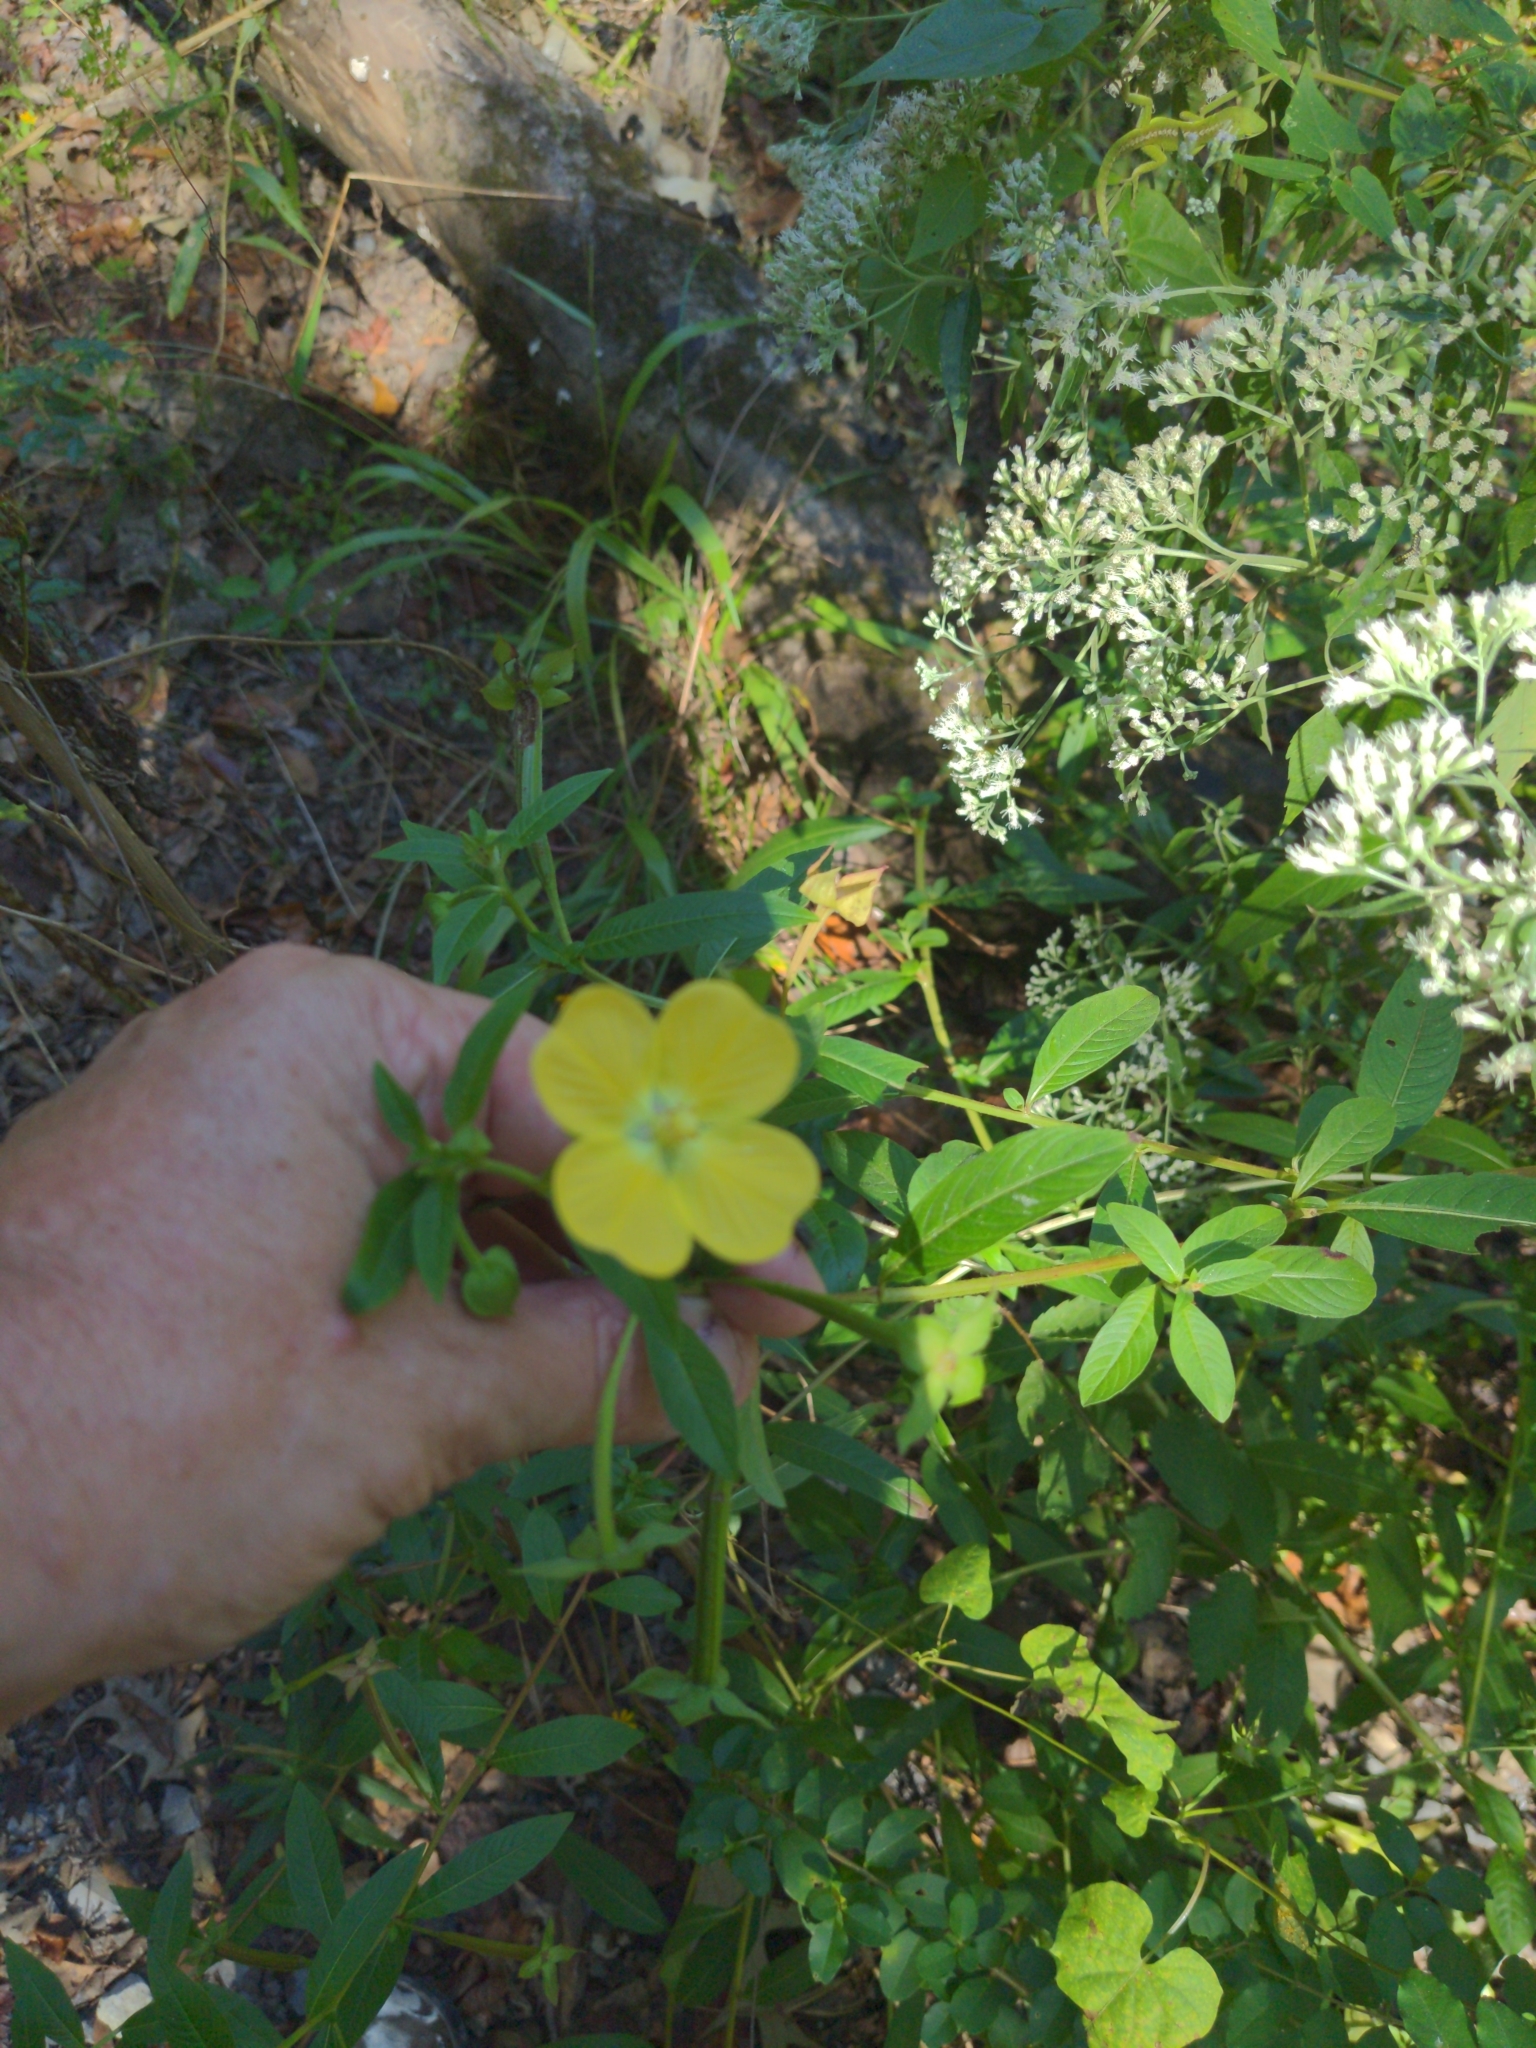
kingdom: Plantae
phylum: Tracheophyta
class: Magnoliopsida
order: Myrtales
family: Onagraceae
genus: Ludwigia
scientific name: Ludwigia octovalvis
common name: Water-primrose
